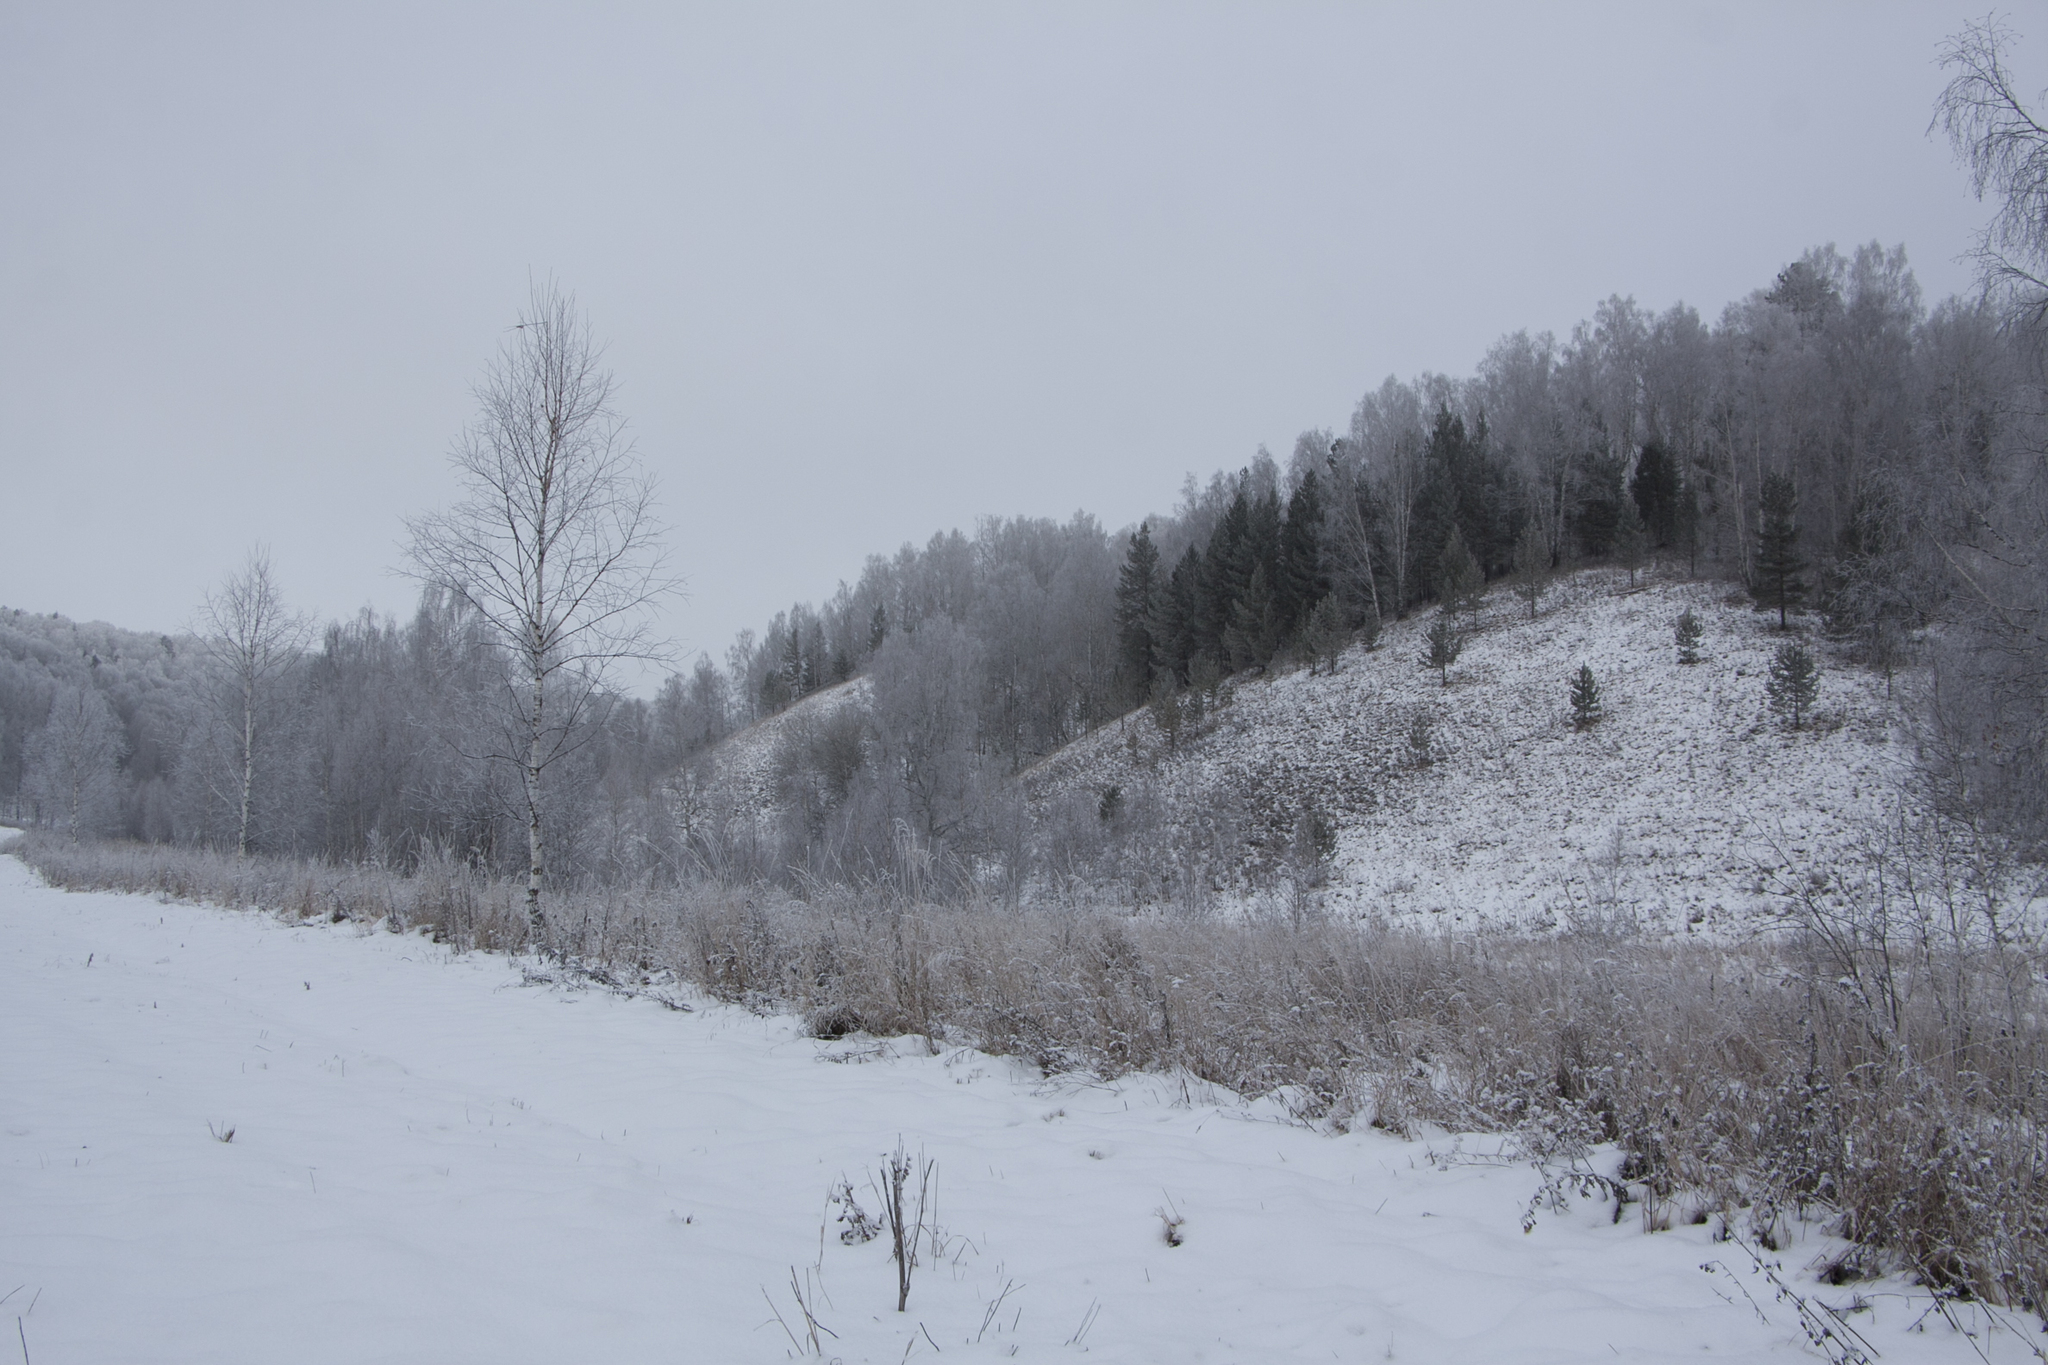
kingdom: Plantae
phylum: Tracheophyta
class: Pinopsida
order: Pinales
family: Pinaceae
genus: Pinus
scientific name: Pinus sylvestris
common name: Scots pine
